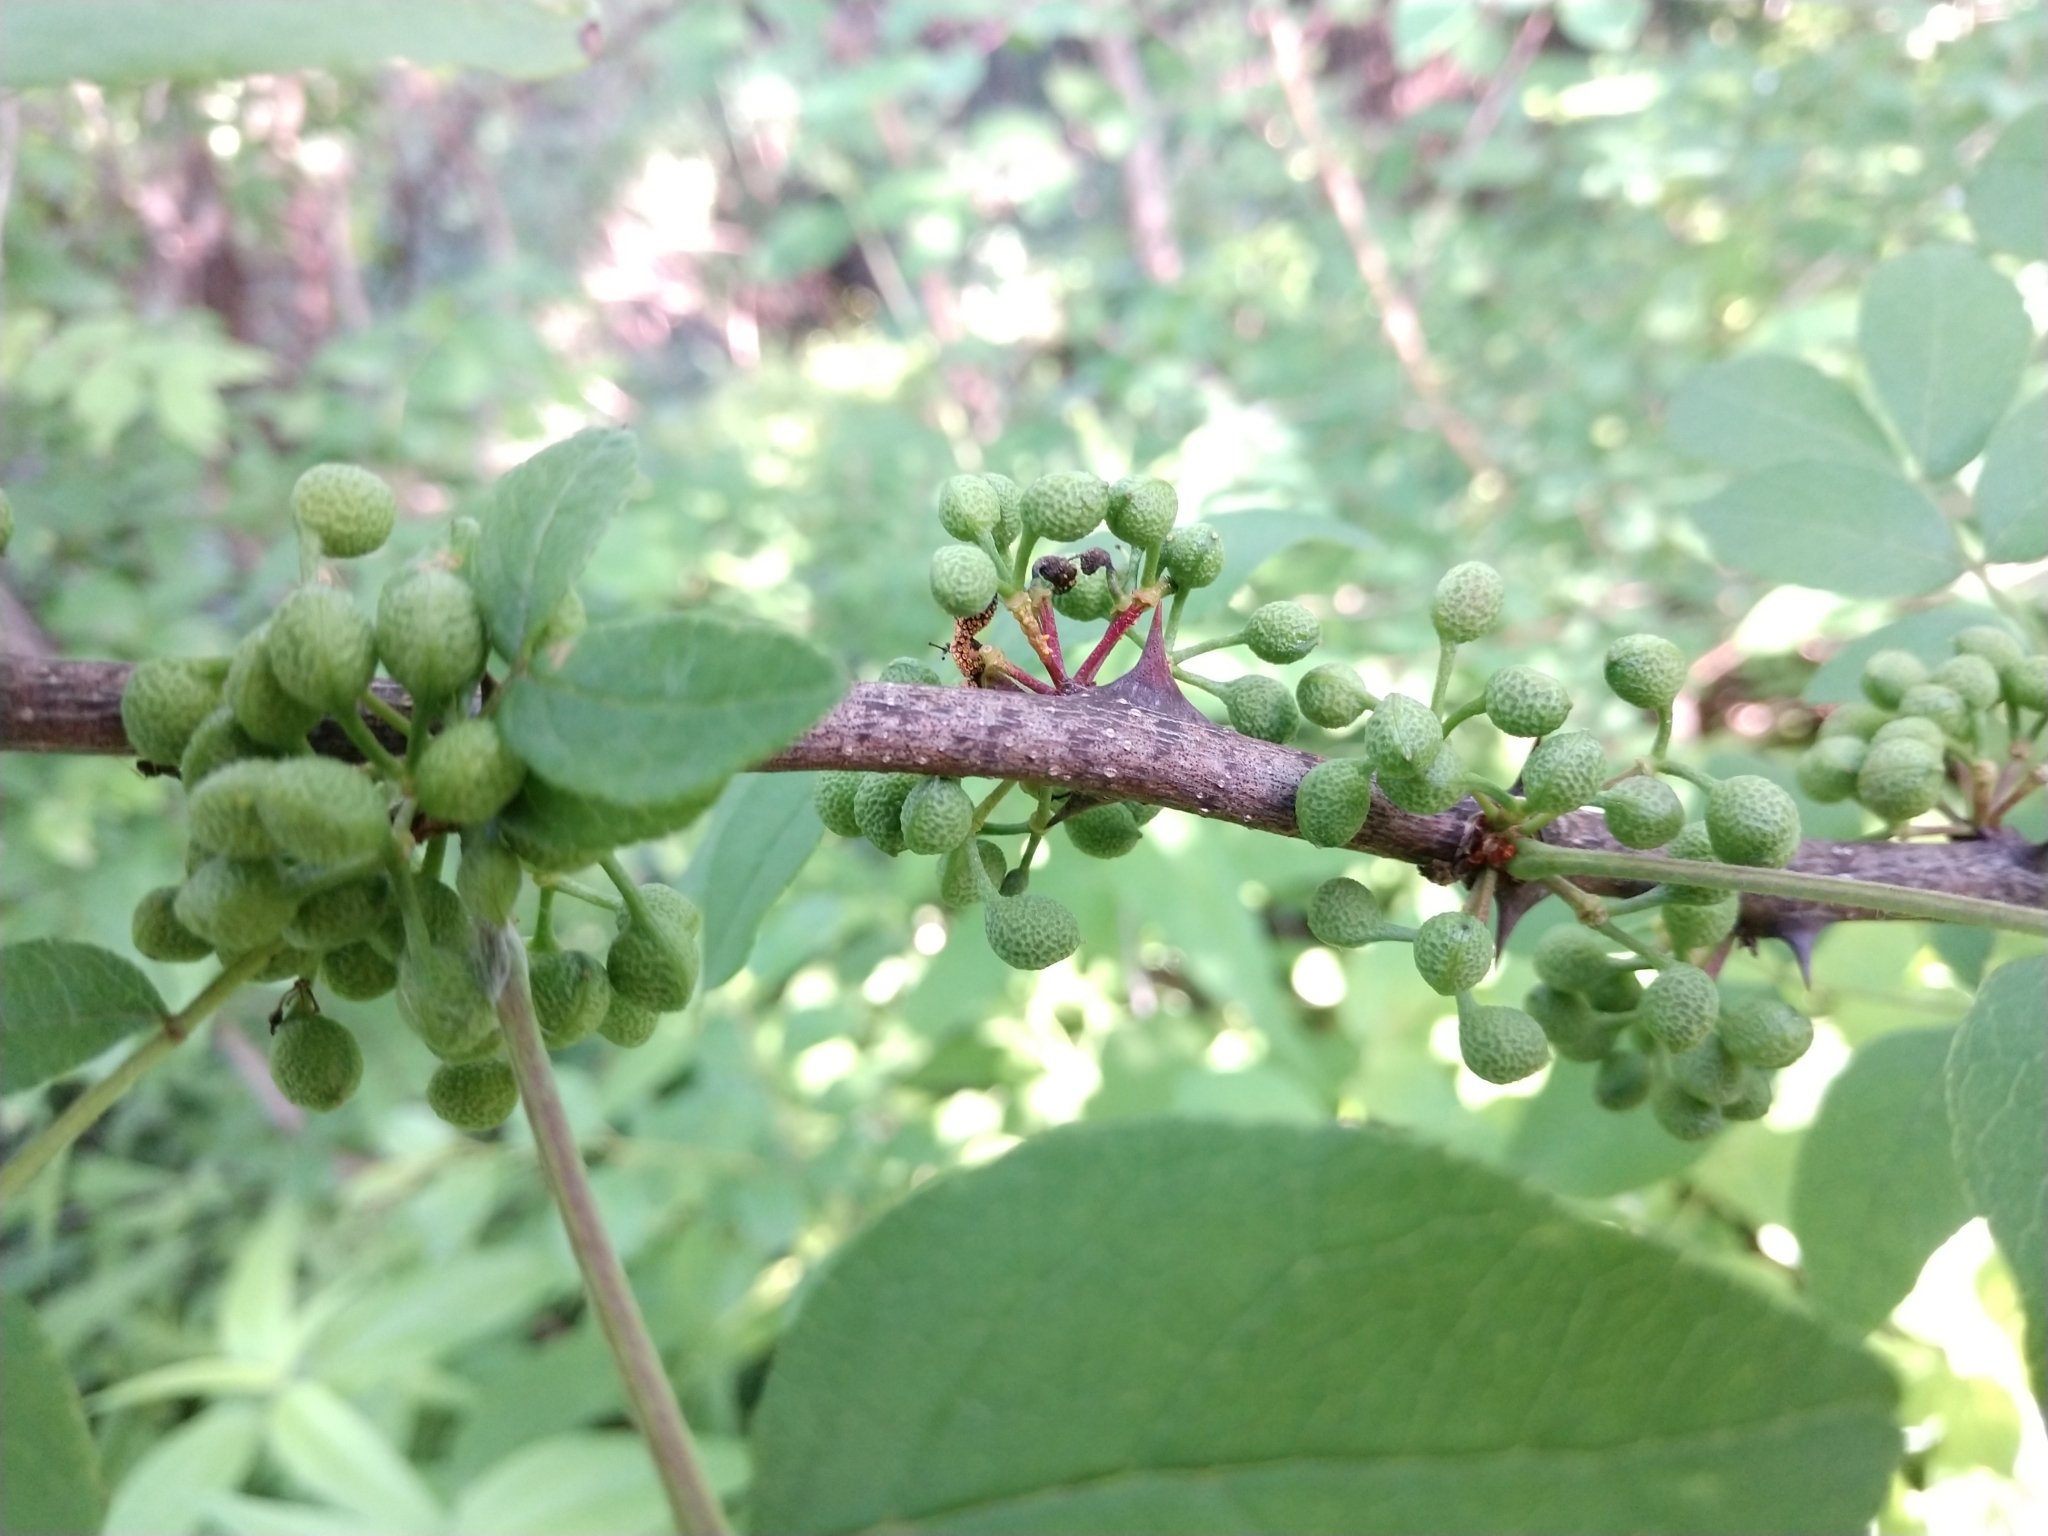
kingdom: Plantae
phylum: Tracheophyta
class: Magnoliopsida
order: Sapindales
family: Rutaceae
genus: Zanthoxylum
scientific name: Zanthoxylum americanum
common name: Northern prickly-ash
